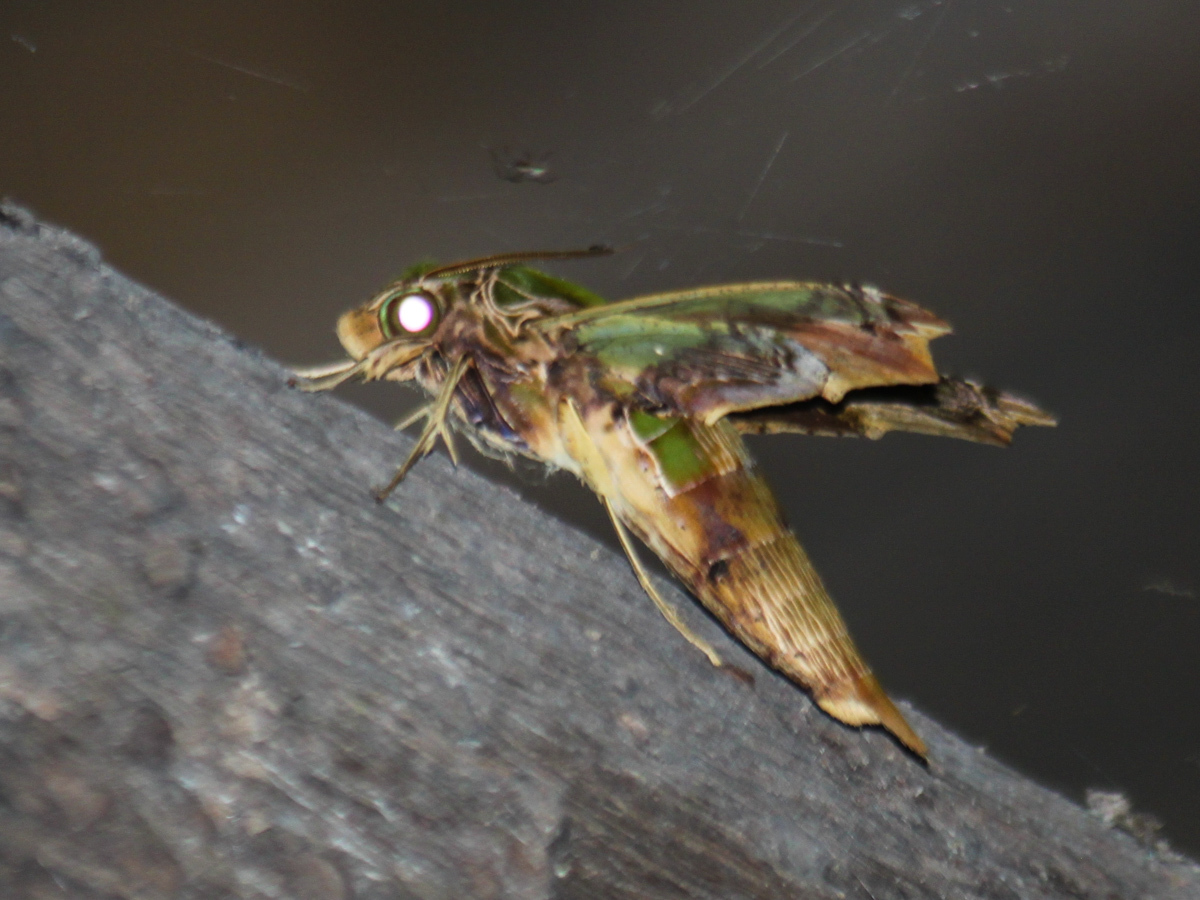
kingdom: Animalia
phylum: Arthropoda
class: Insecta
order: Lepidoptera
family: Sphingidae
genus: Eupanacra
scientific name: Eupanacra busiris
